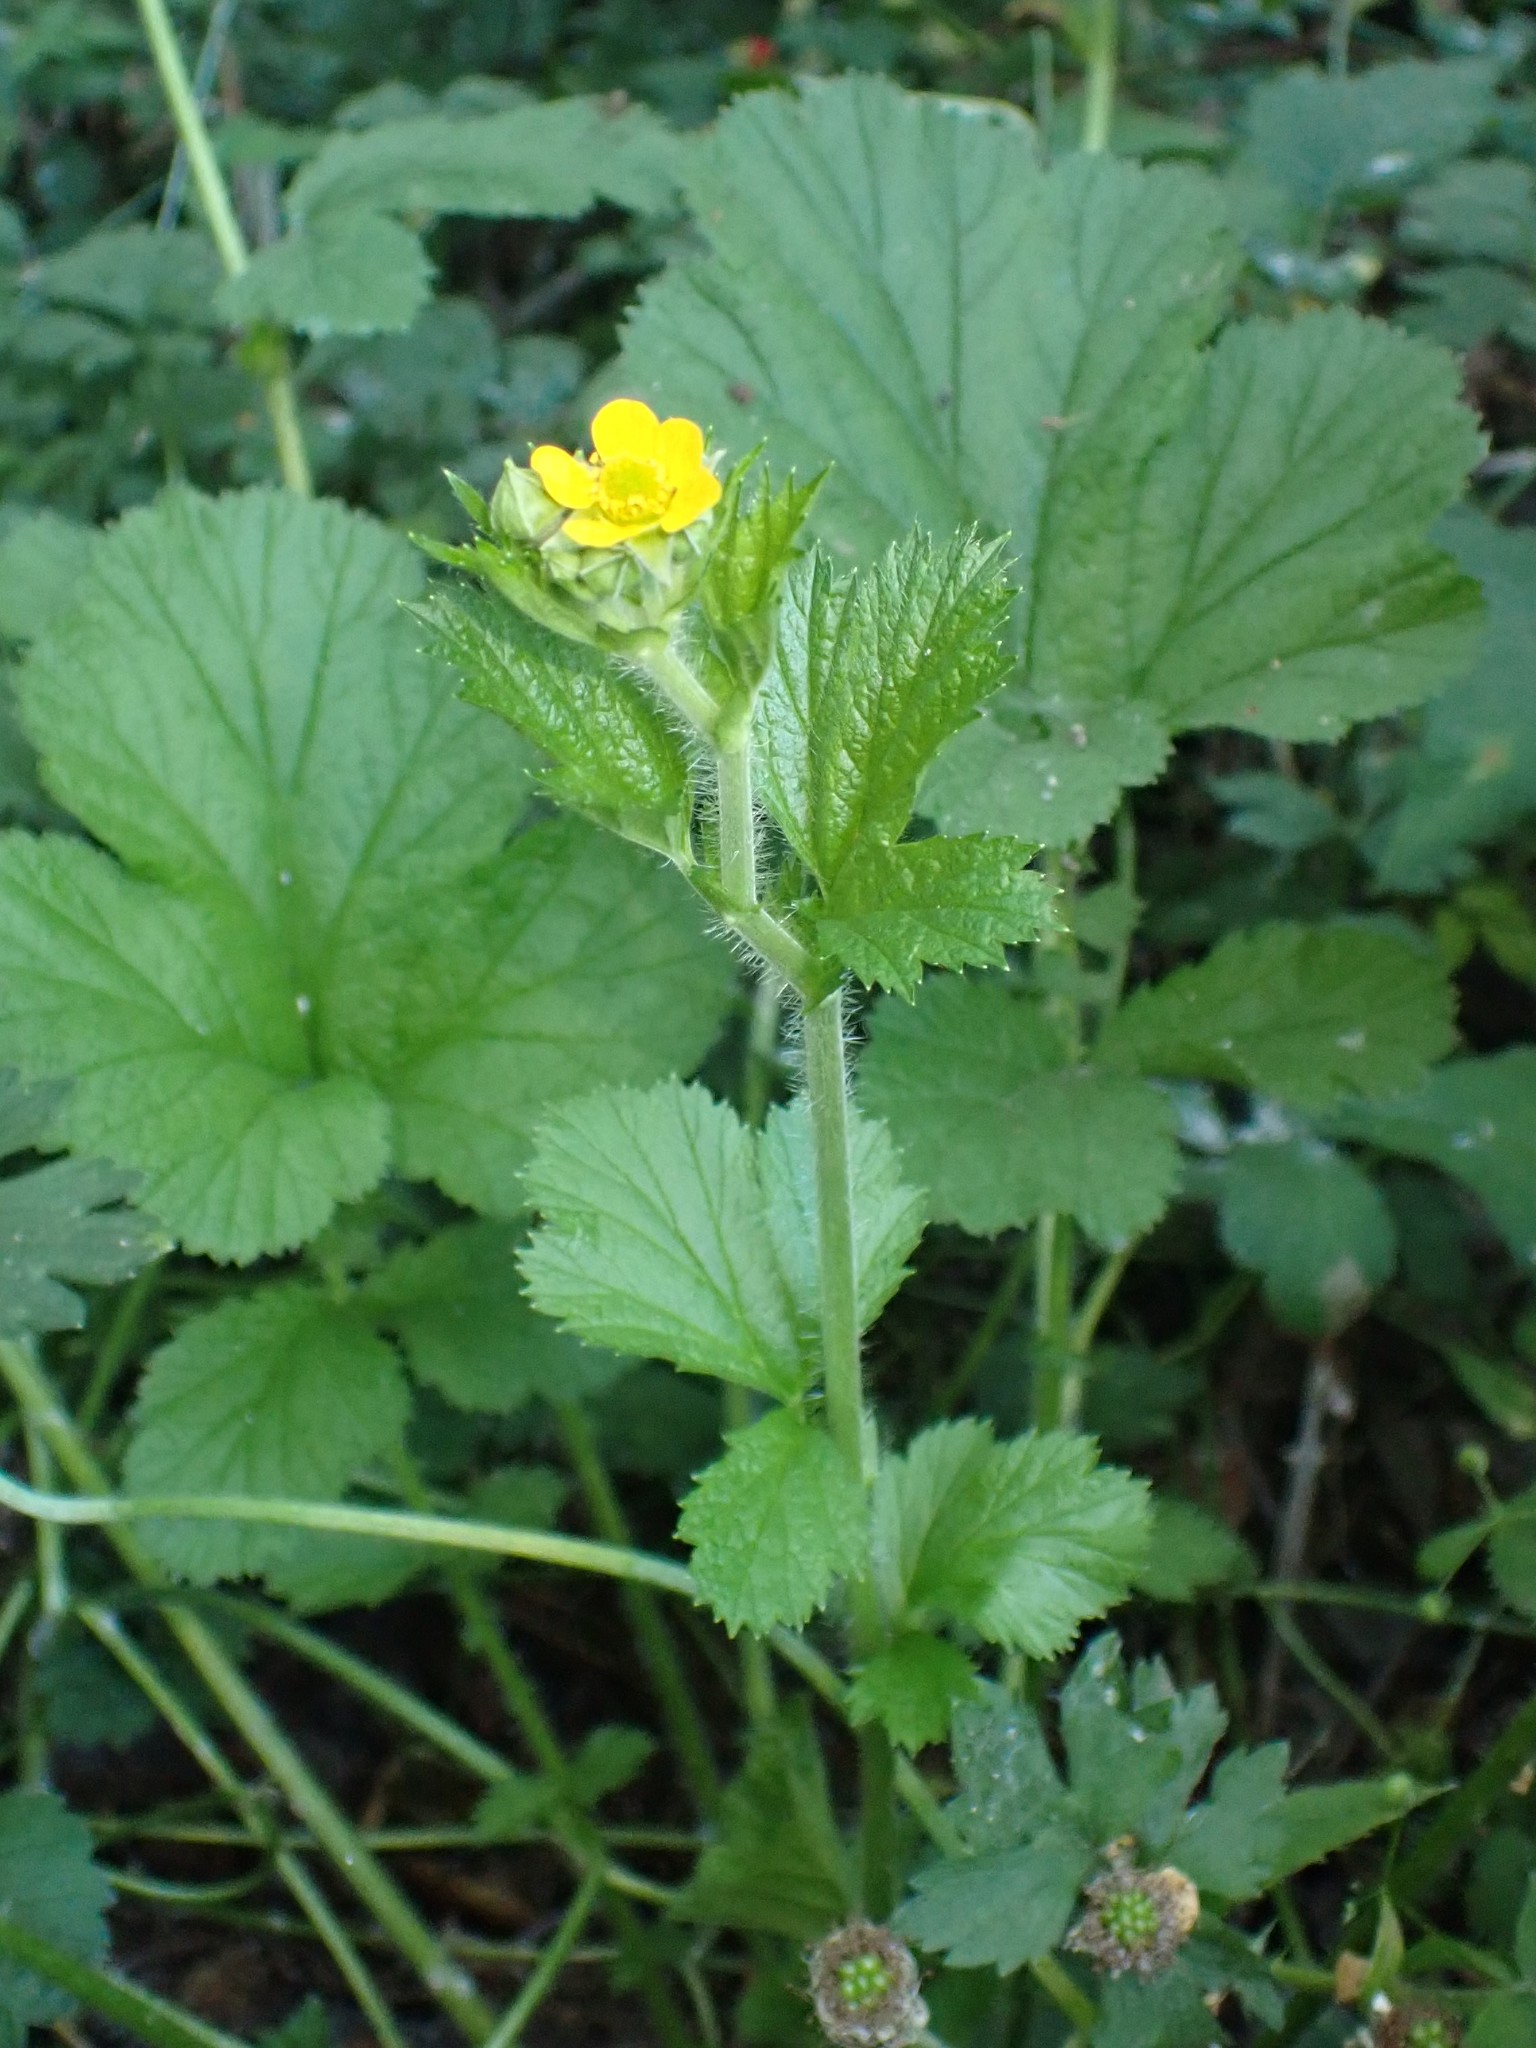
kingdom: Plantae
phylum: Tracheophyta
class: Magnoliopsida
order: Rosales
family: Rosaceae
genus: Geum
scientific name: Geum macrophyllum
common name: Large-leaved avens
